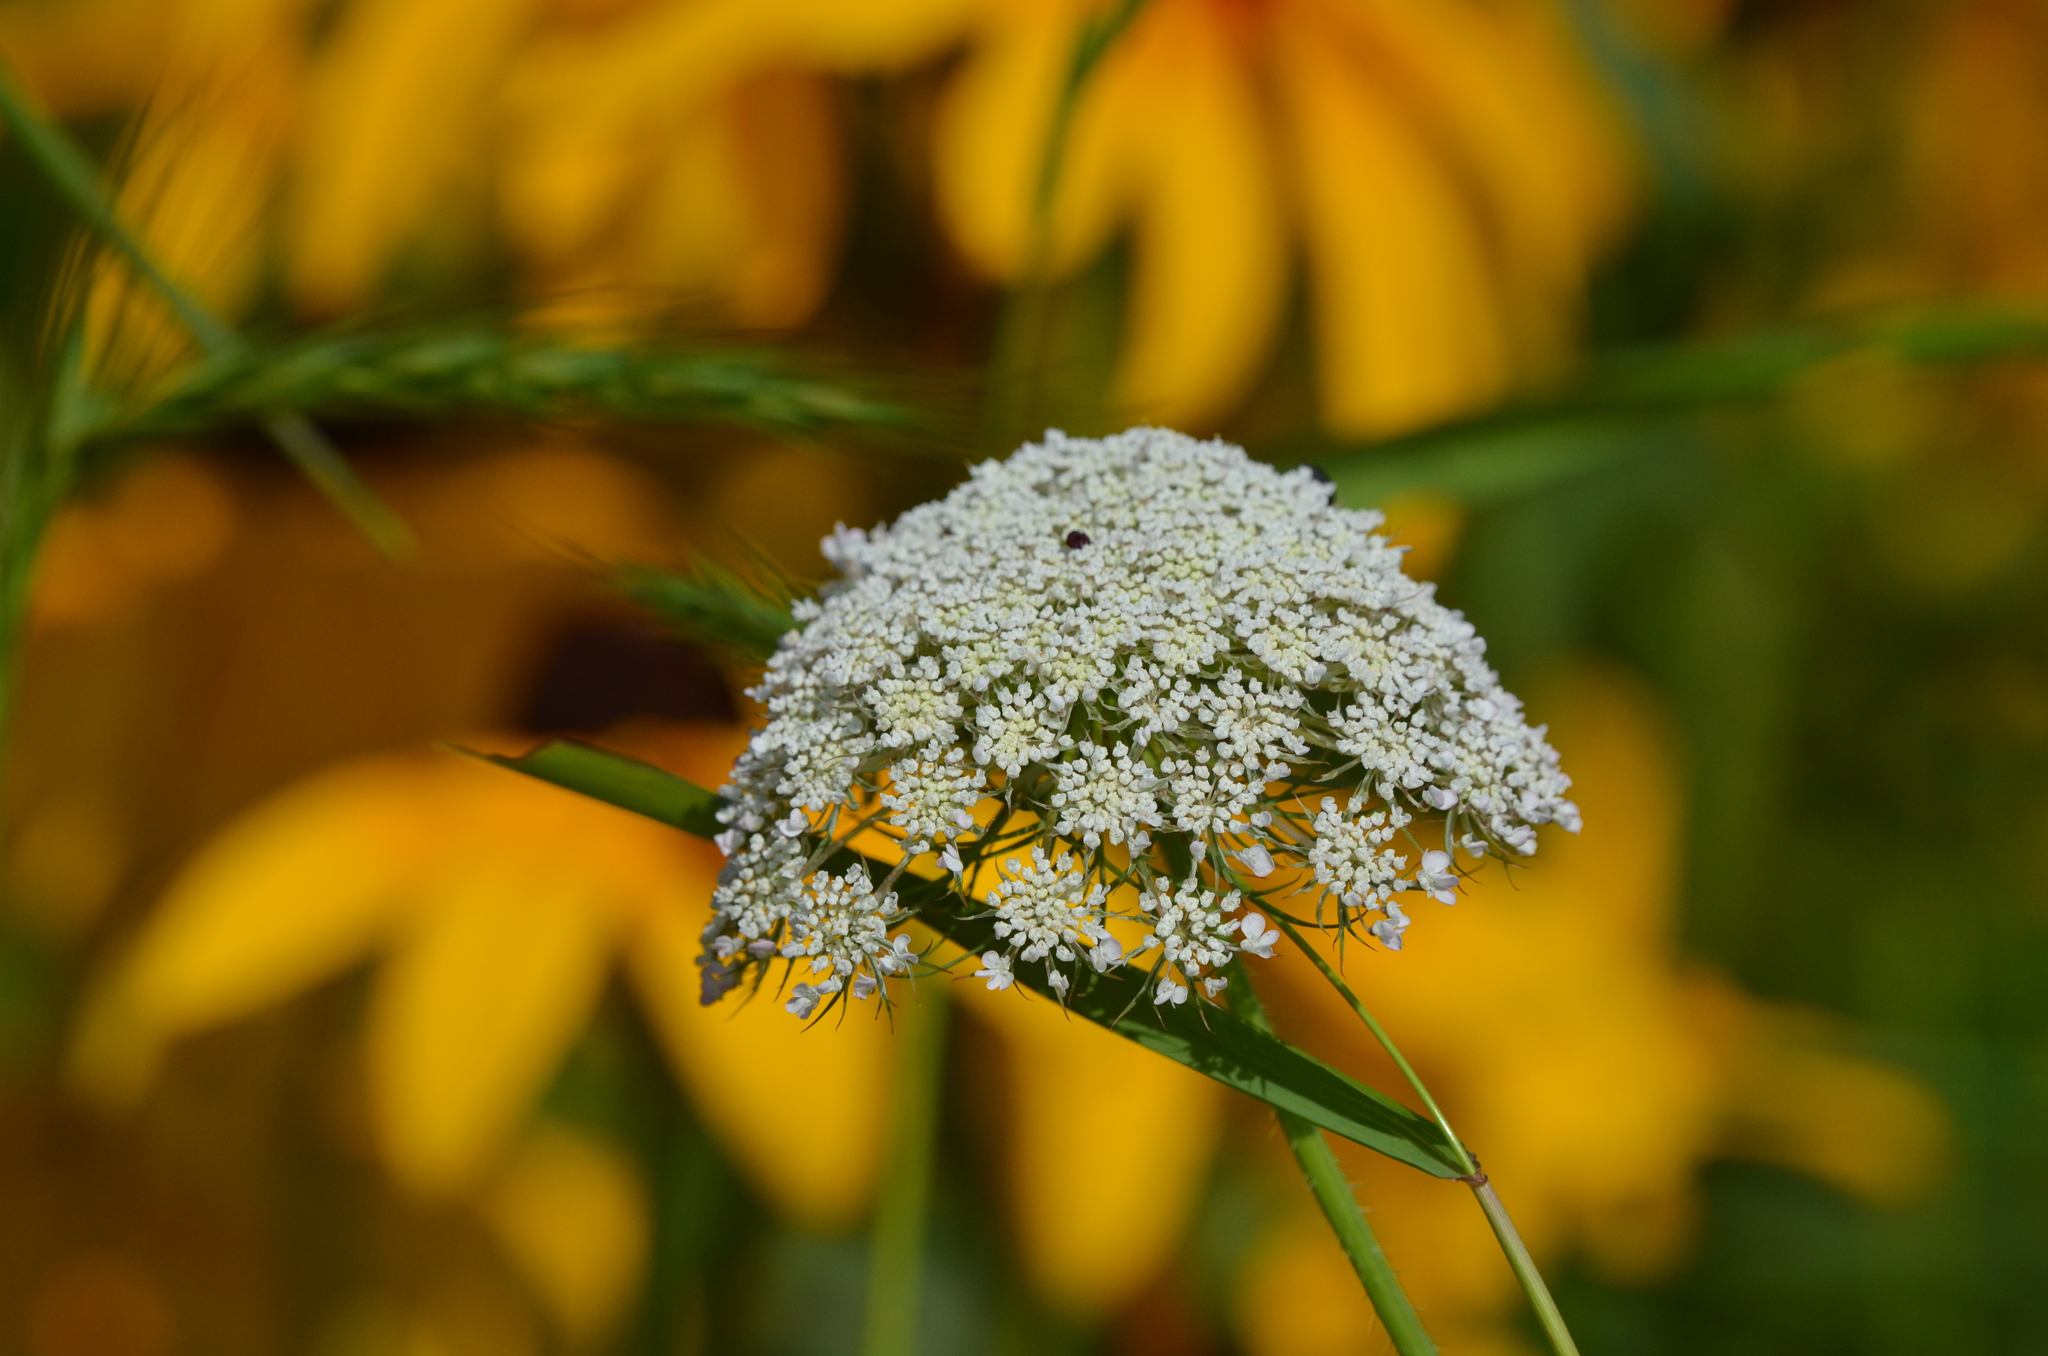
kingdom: Plantae
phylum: Tracheophyta
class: Magnoliopsida
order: Apiales
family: Apiaceae
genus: Daucus
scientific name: Daucus carota
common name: Wild carrot
